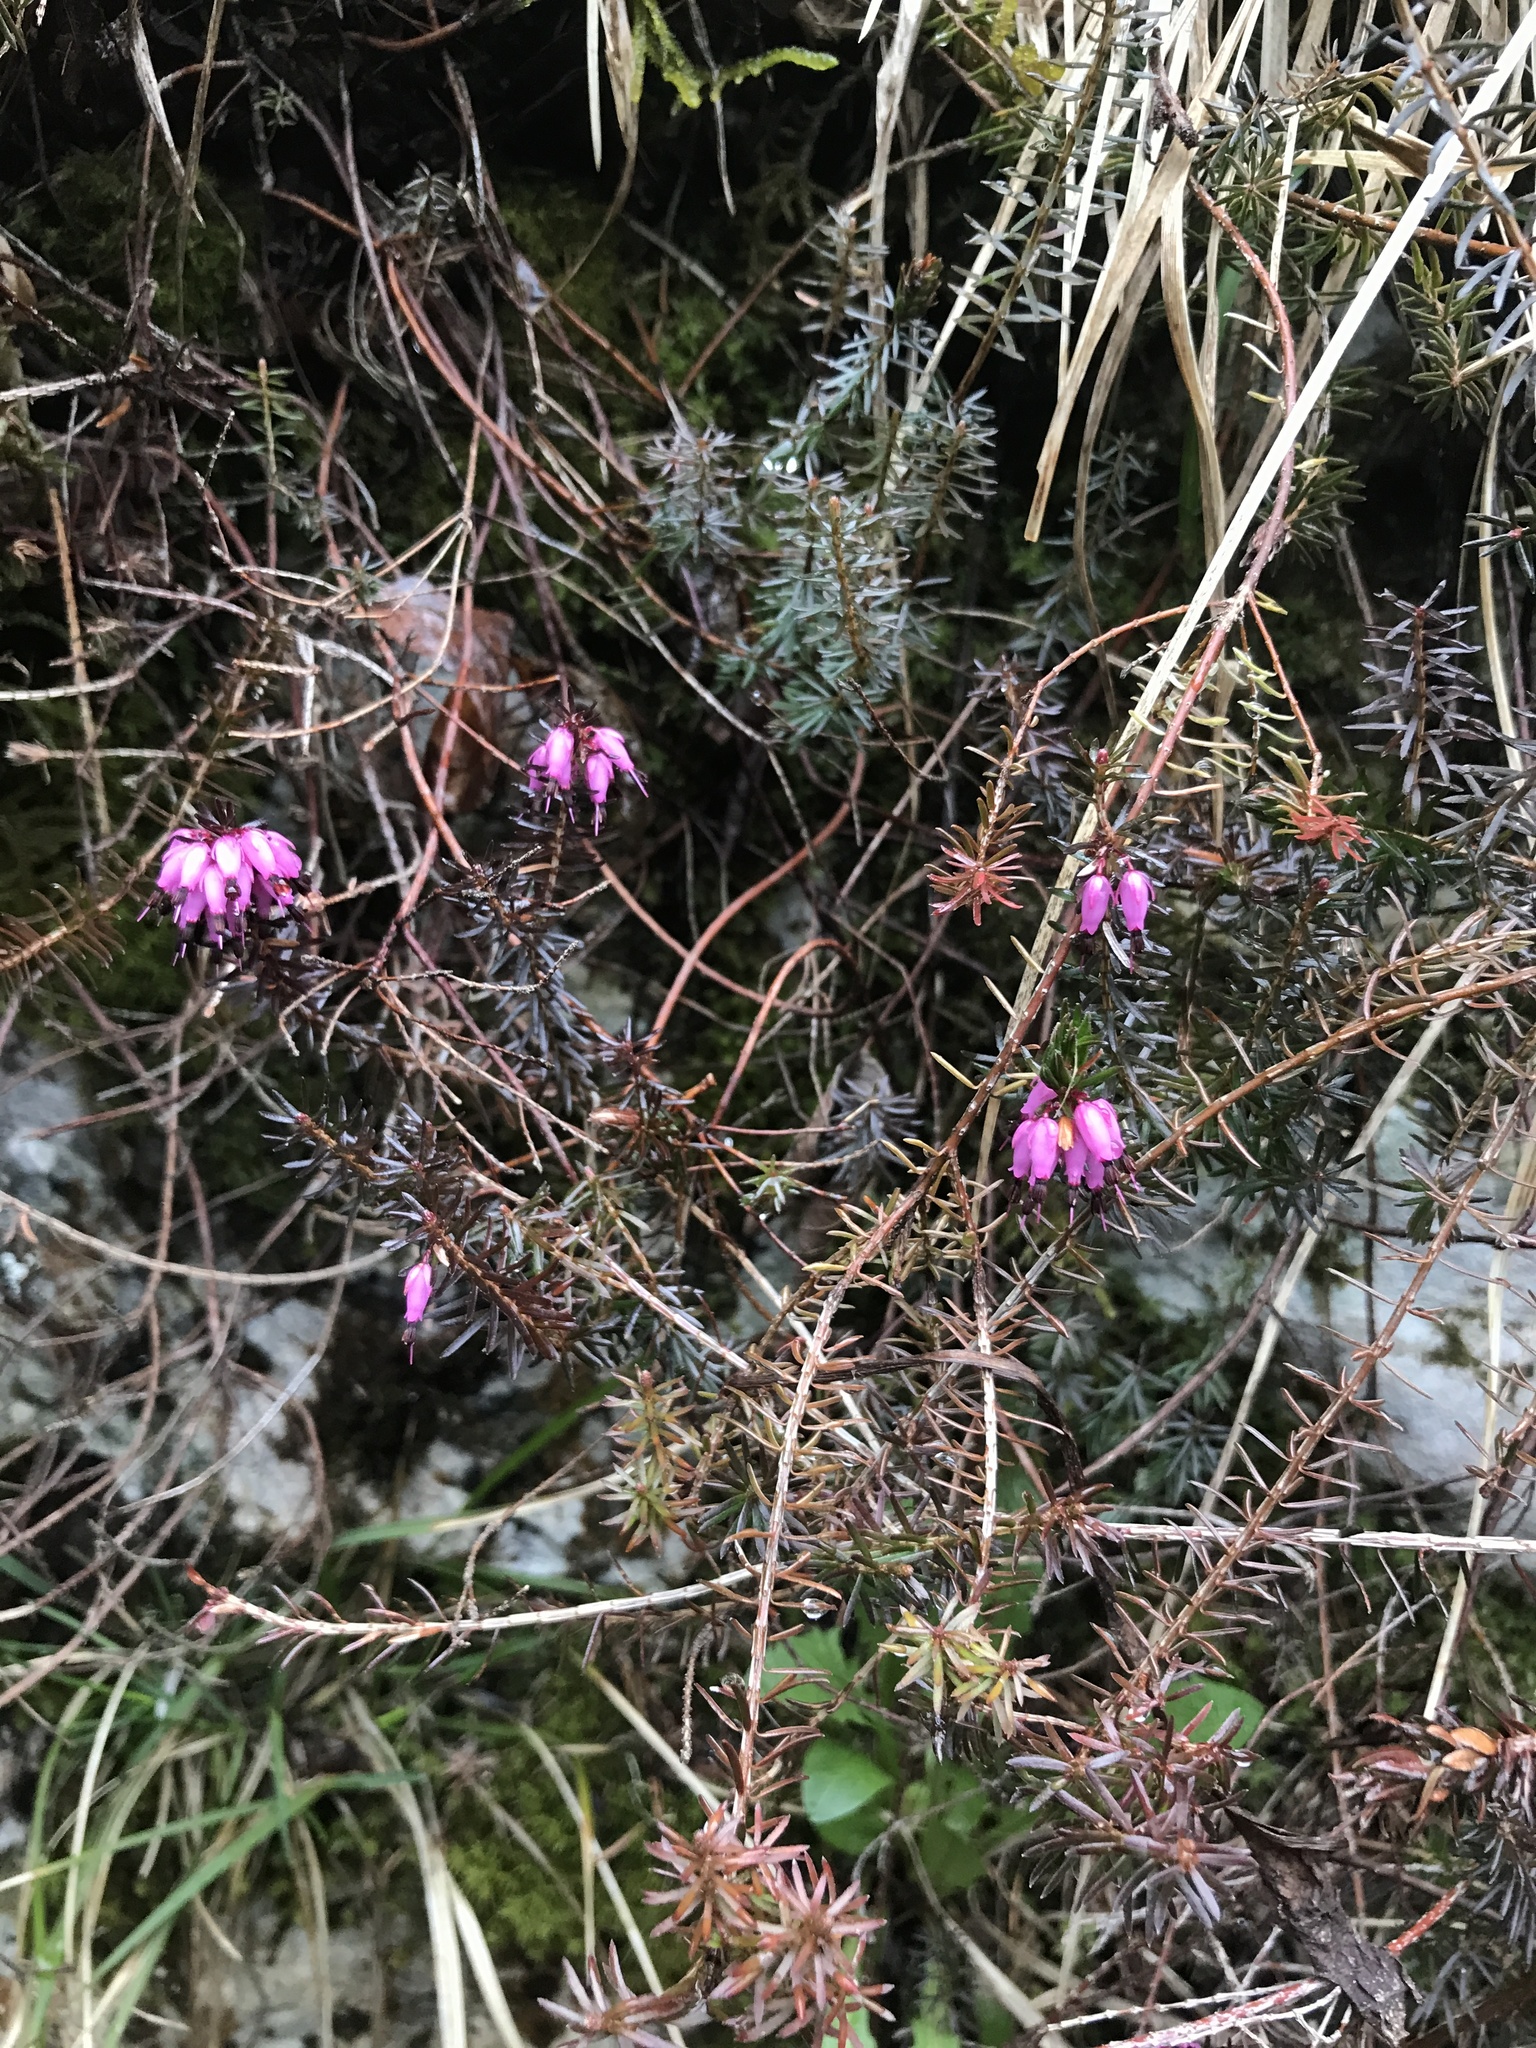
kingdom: Plantae
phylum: Tracheophyta
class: Magnoliopsida
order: Ericales
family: Ericaceae
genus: Erica
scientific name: Erica carnea
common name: Winter heath
